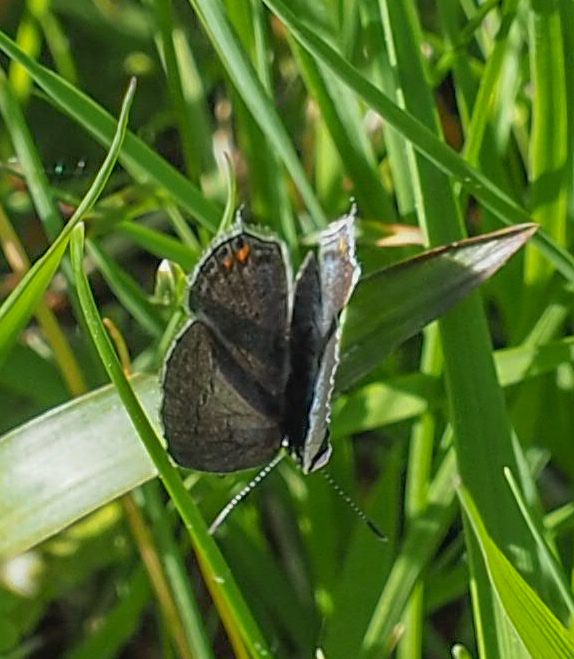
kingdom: Animalia
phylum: Arthropoda
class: Insecta
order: Lepidoptera
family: Lycaenidae
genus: Elkalyce
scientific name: Elkalyce comyntas
